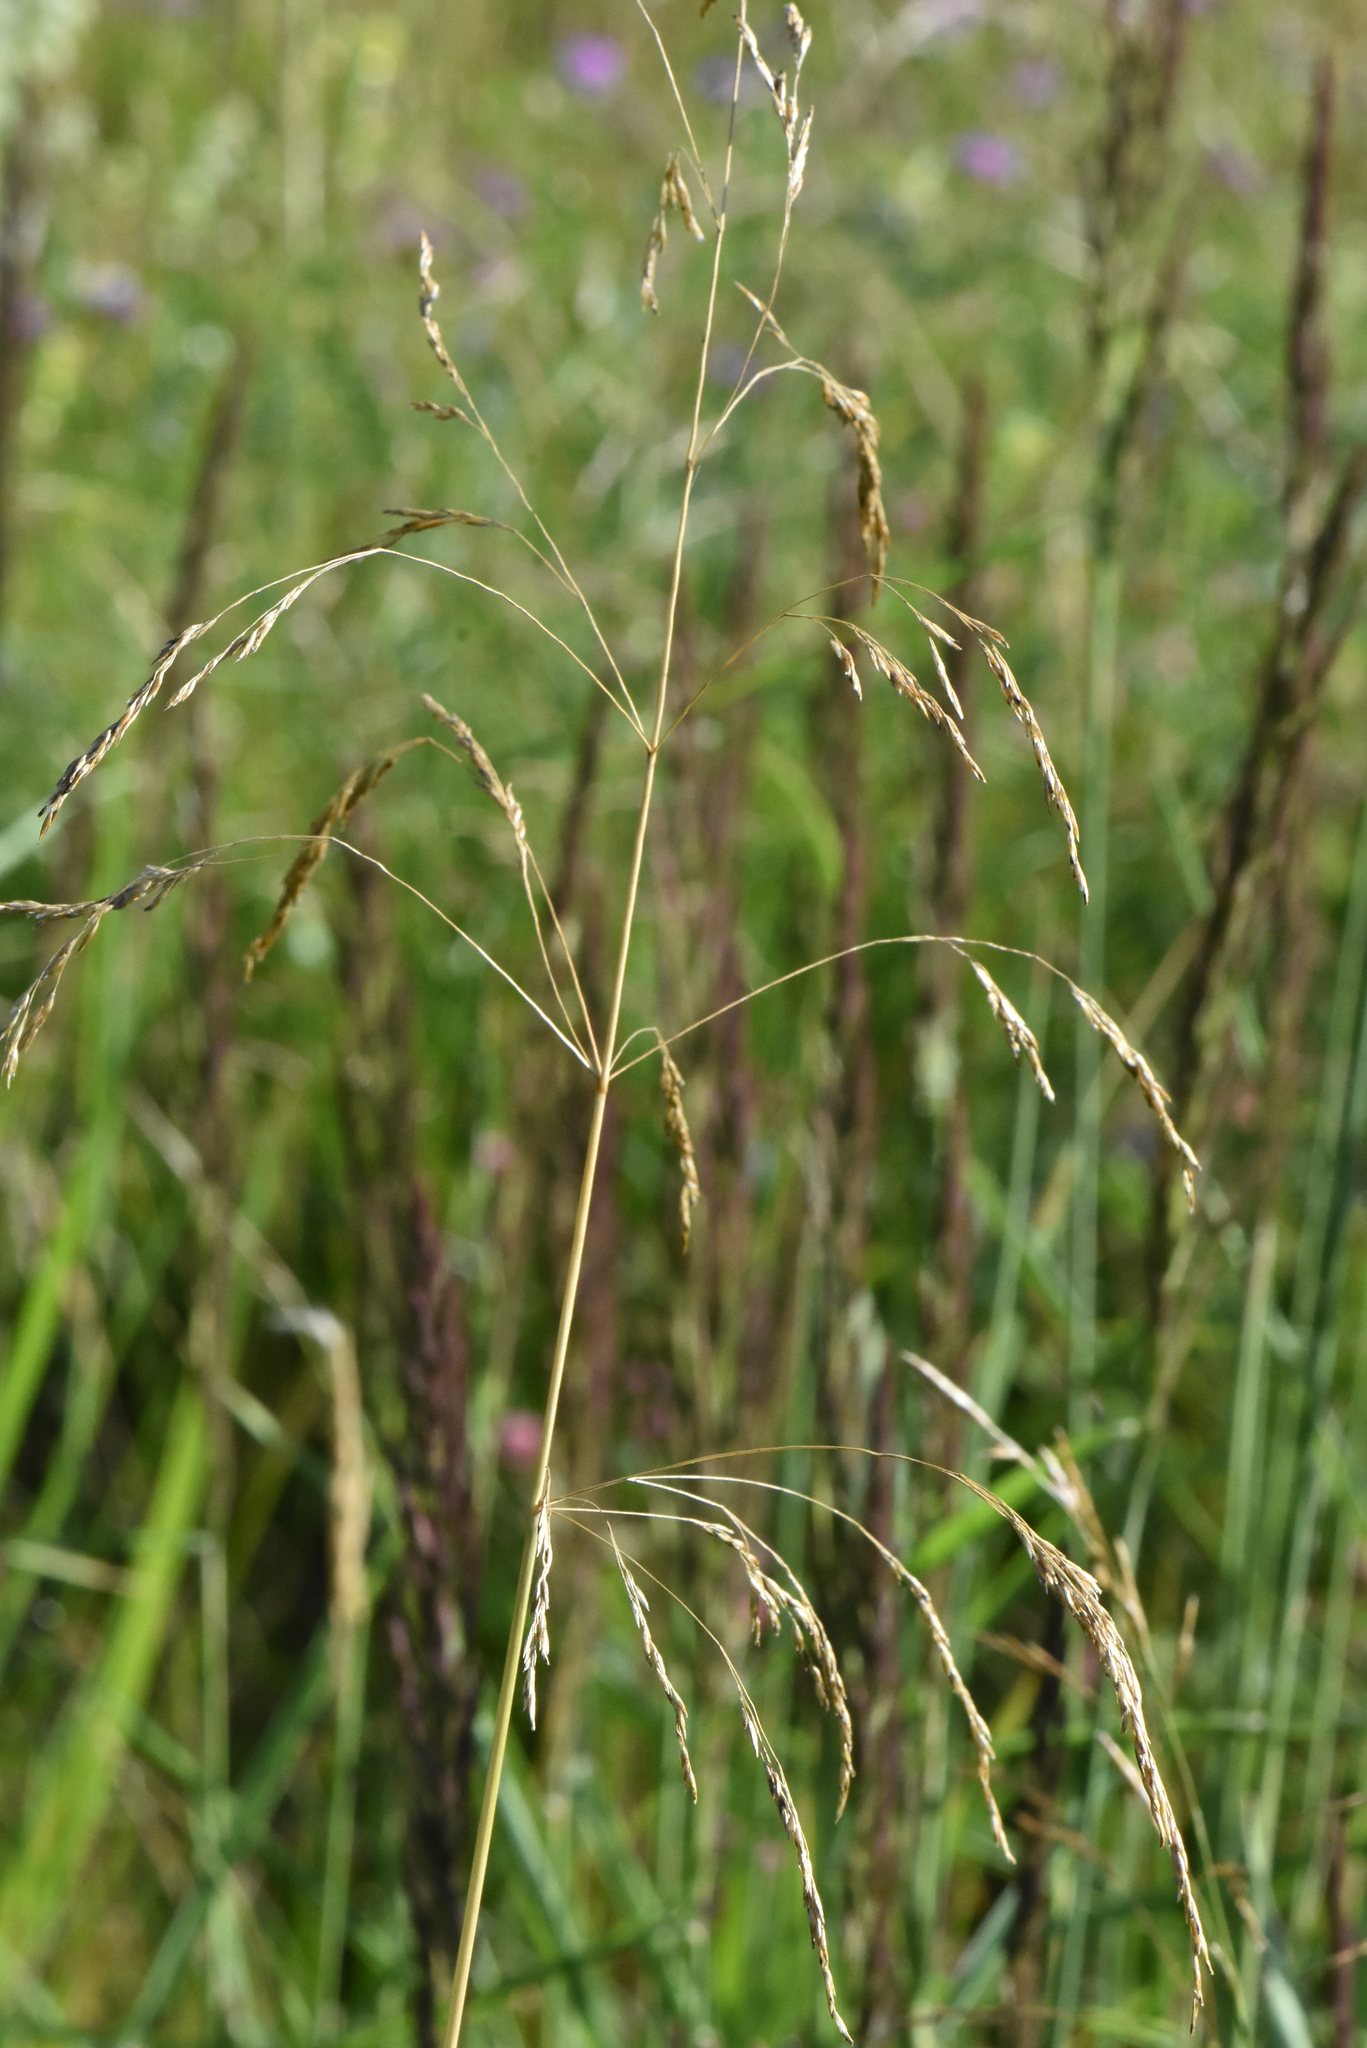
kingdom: Plantae
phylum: Tracheophyta
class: Liliopsida
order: Poales
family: Poaceae
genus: Deschampsia
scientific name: Deschampsia cespitosa
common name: Tufted hair-grass
